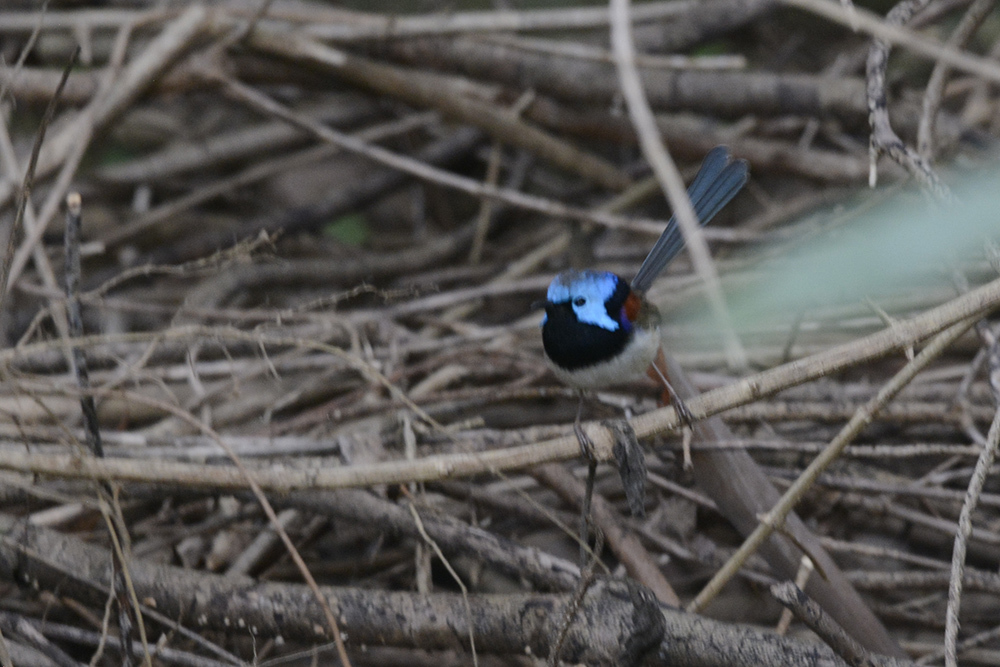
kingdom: Animalia
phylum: Chordata
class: Aves
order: Passeriformes
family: Maluridae
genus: Malurus
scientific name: Malurus lamberti
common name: Variegated fairywren
